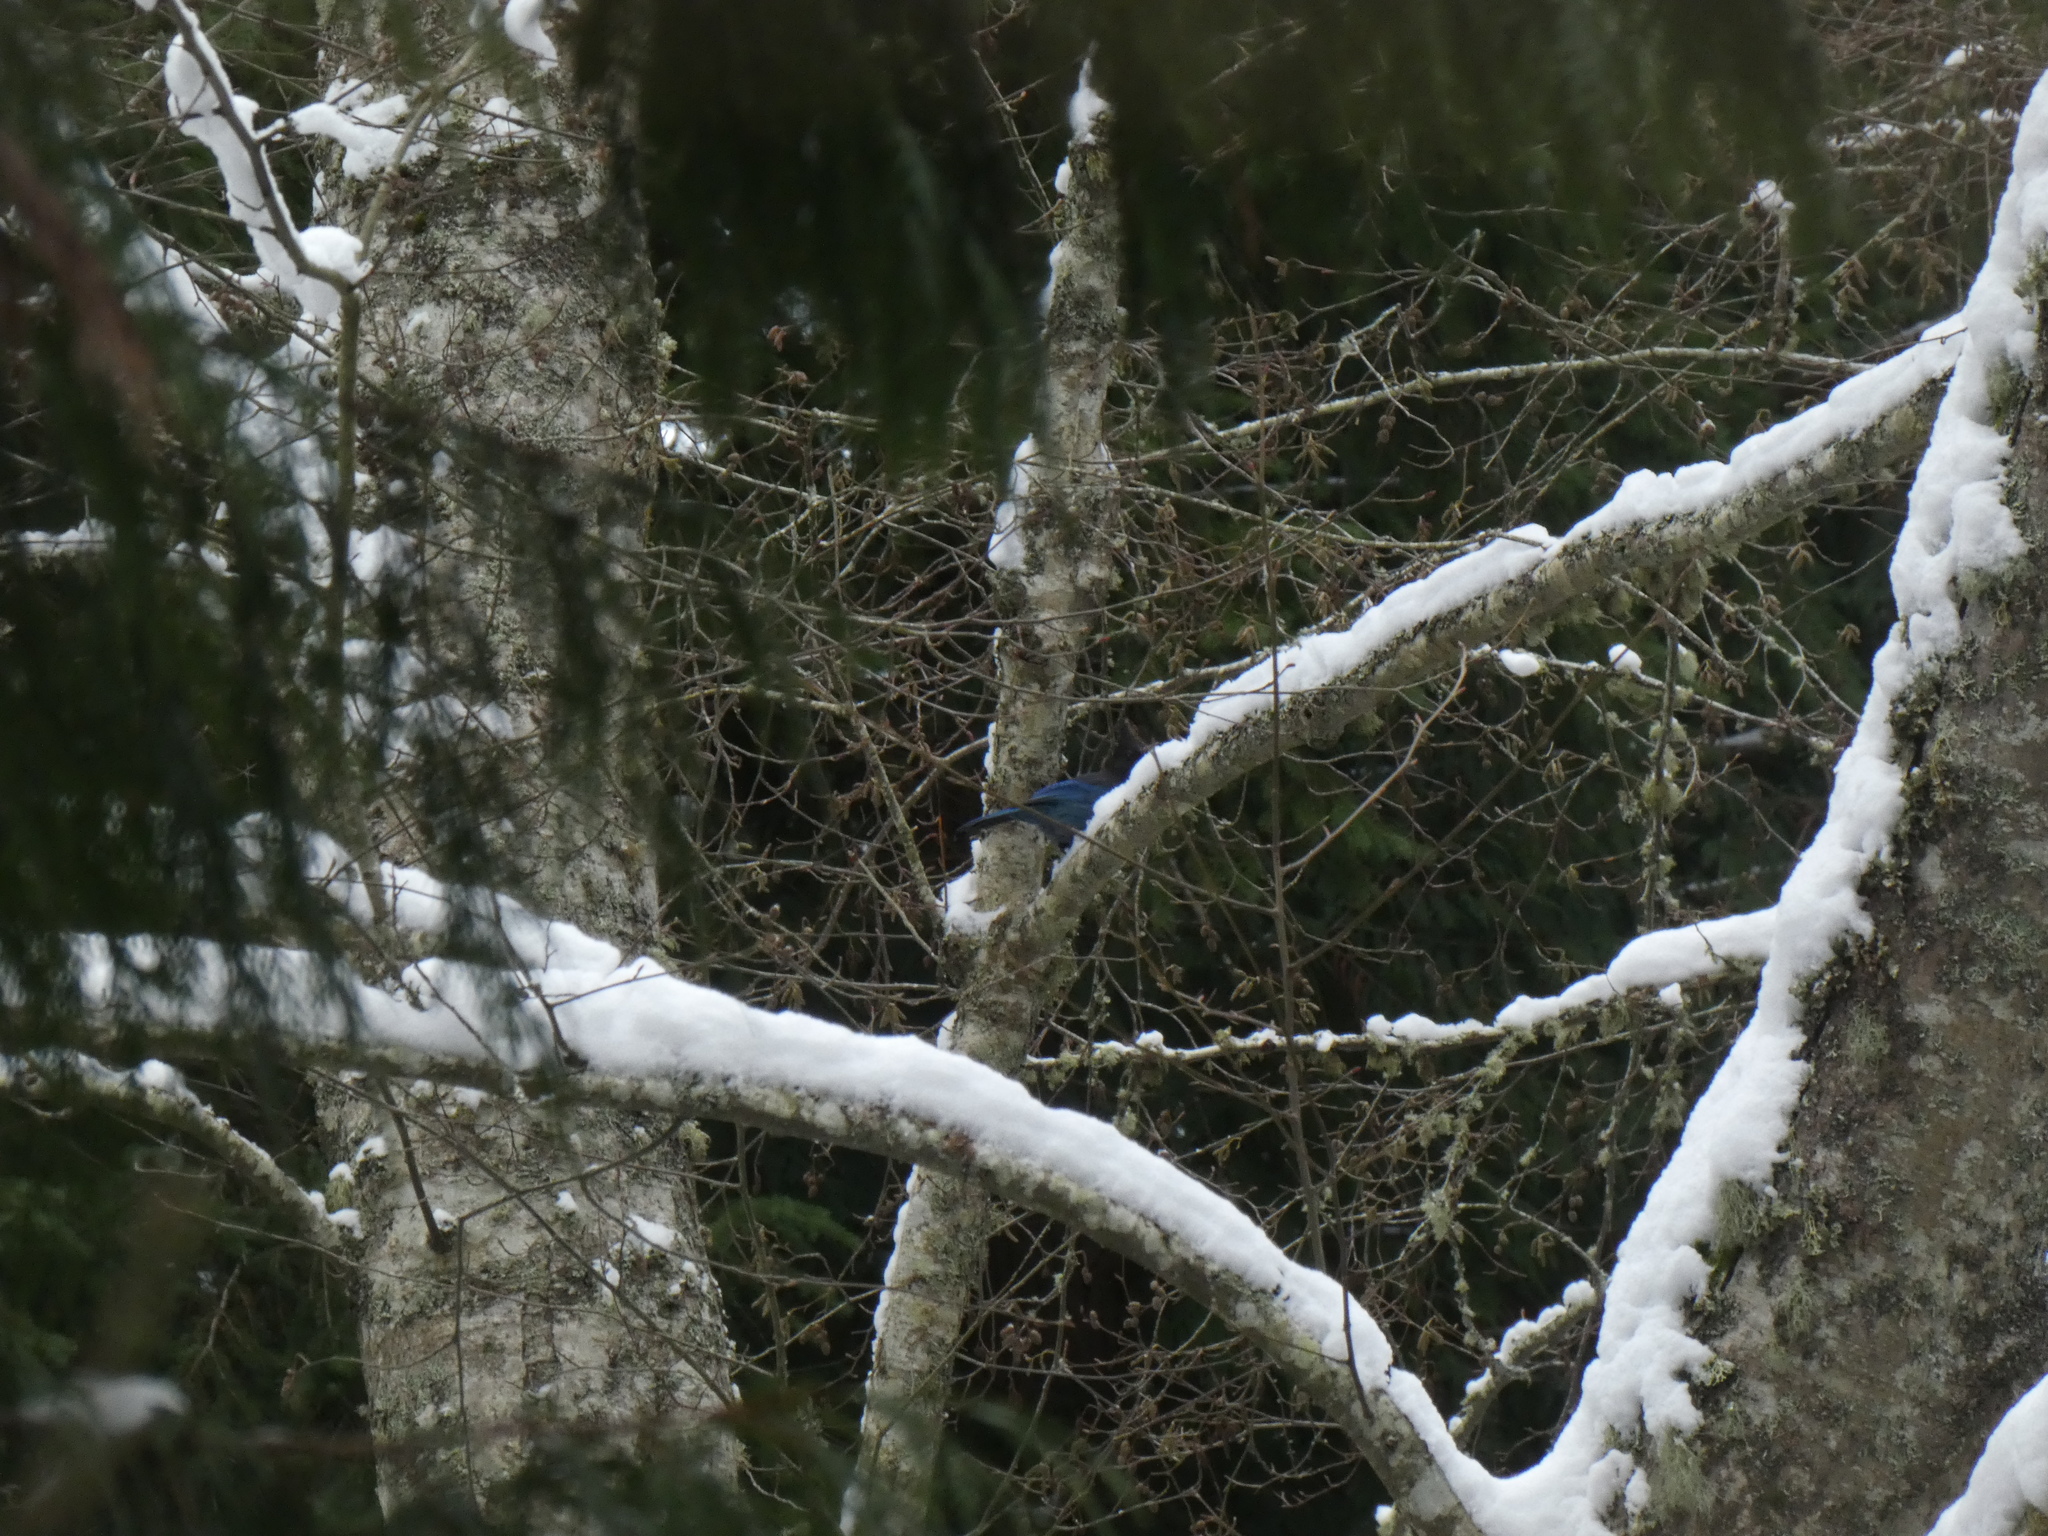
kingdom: Animalia
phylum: Chordata
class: Aves
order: Passeriformes
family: Corvidae
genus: Cyanocitta
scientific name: Cyanocitta stelleri
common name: Steller's jay
